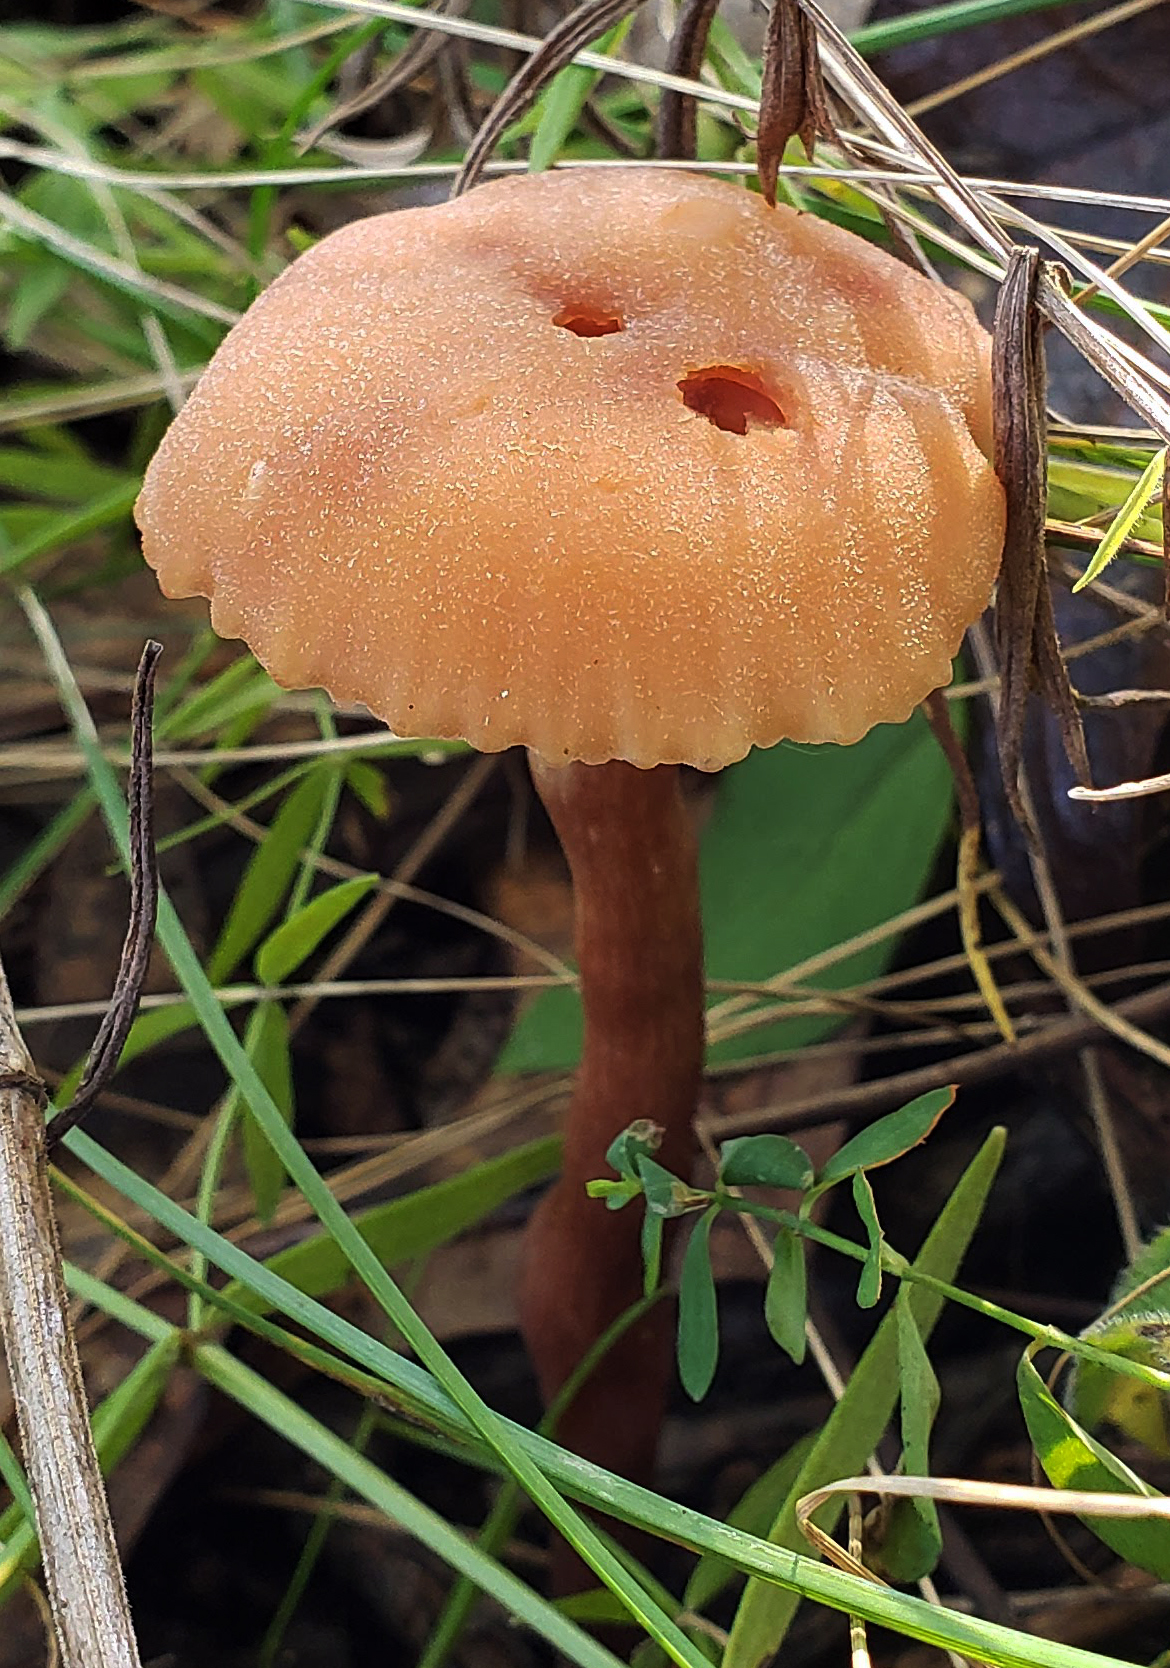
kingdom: Fungi
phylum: Basidiomycota
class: Agaricomycetes
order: Agaricales
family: Hydnangiaceae
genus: Laccaria
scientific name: Laccaria laccata
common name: Deceiver
